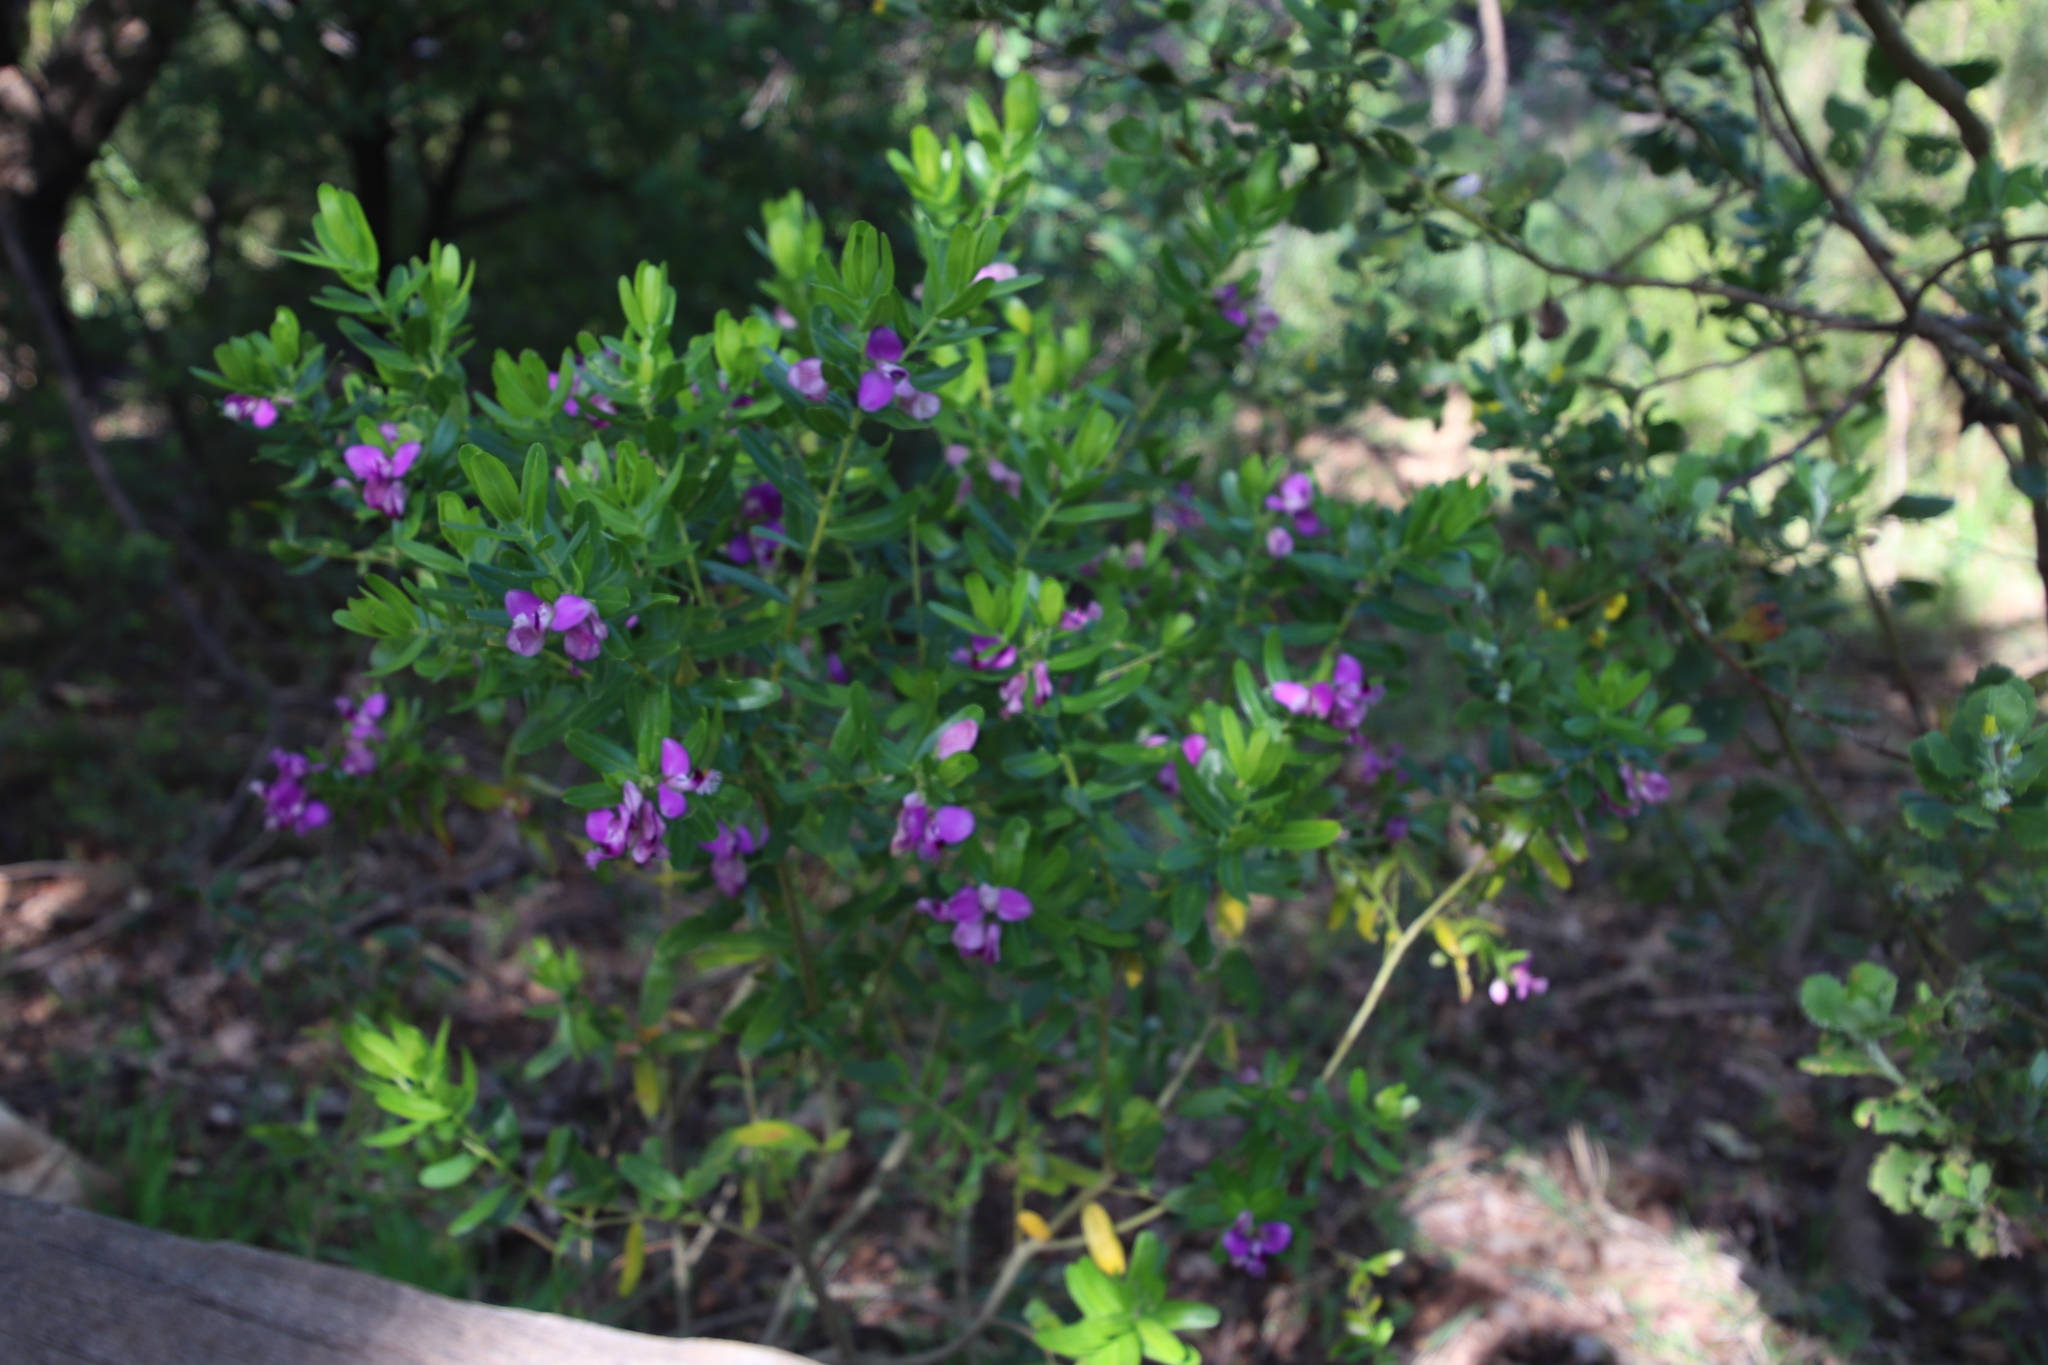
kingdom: Plantae
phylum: Tracheophyta
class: Magnoliopsida
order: Fabales
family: Polygalaceae
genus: Polygala
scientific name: Polygala myrtifolia
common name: Myrtle-leaf milkwort
